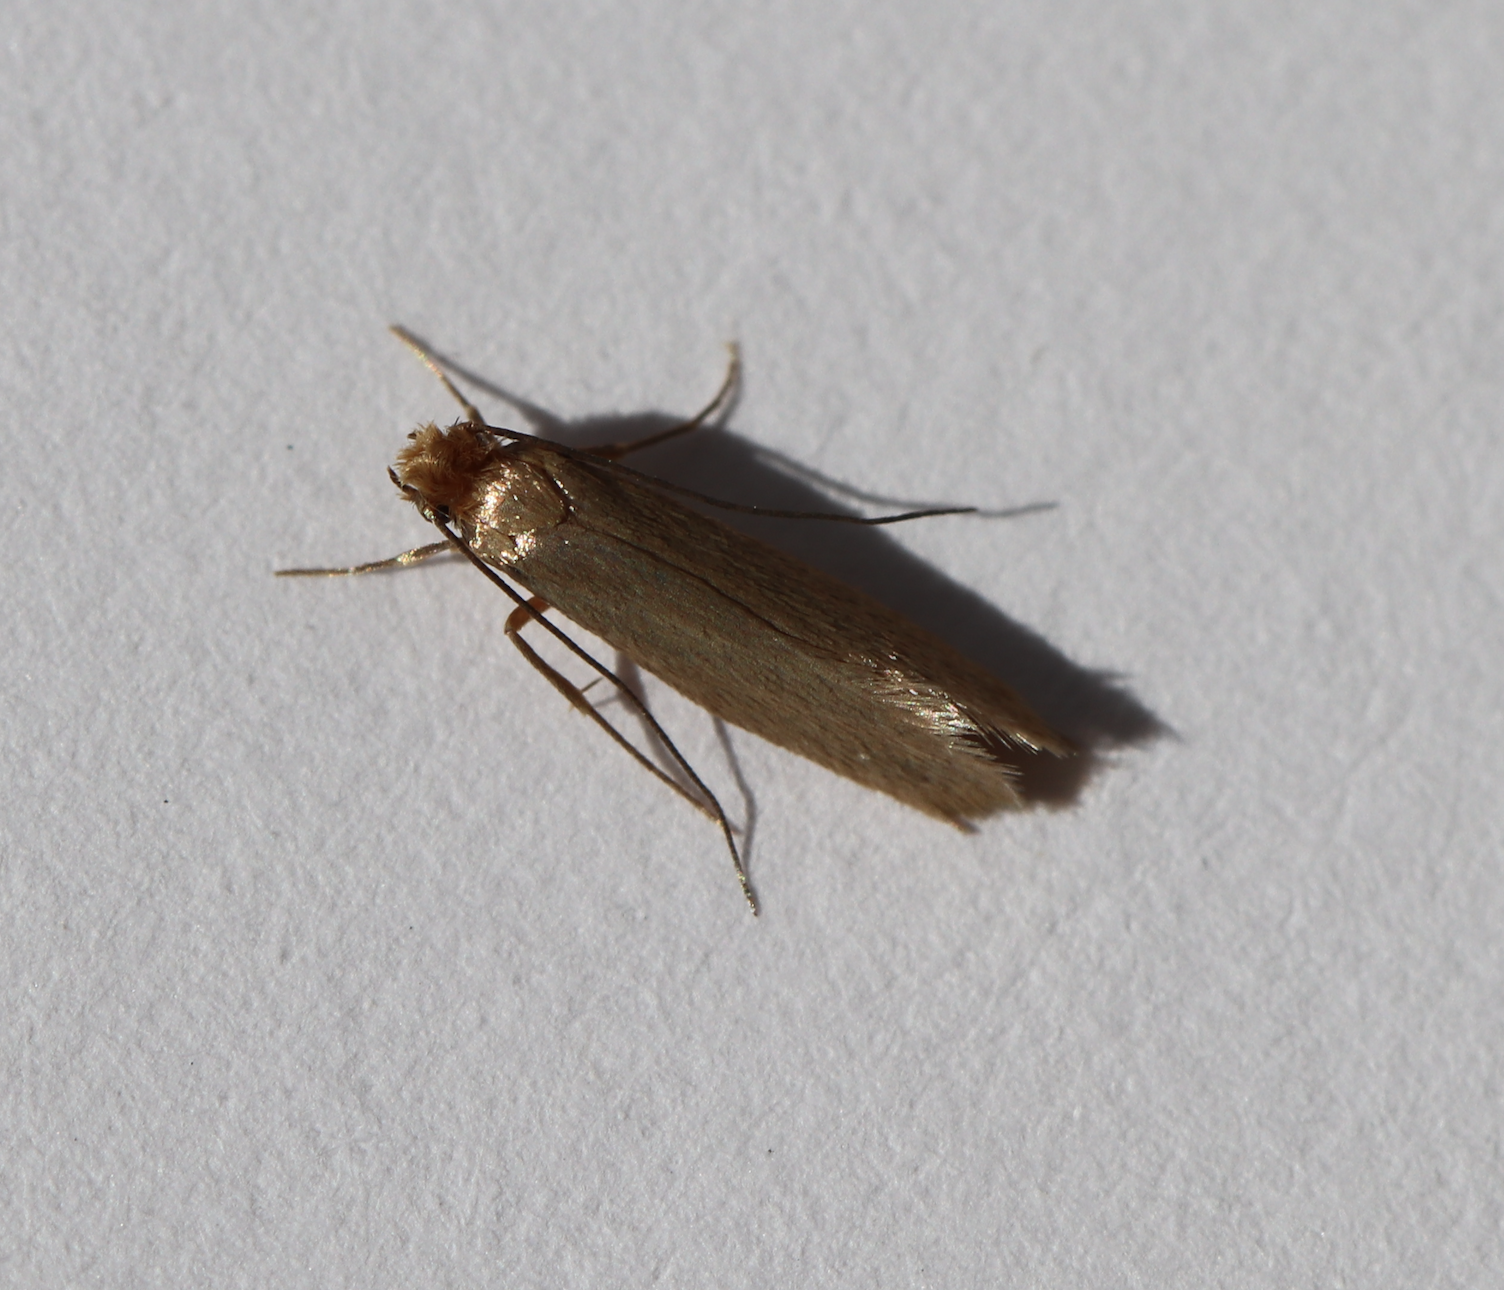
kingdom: Animalia
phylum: Arthropoda
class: Insecta
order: Lepidoptera
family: Tineidae
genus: Tineola
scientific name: Tineola bisselliella
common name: Webbing clothes moth
